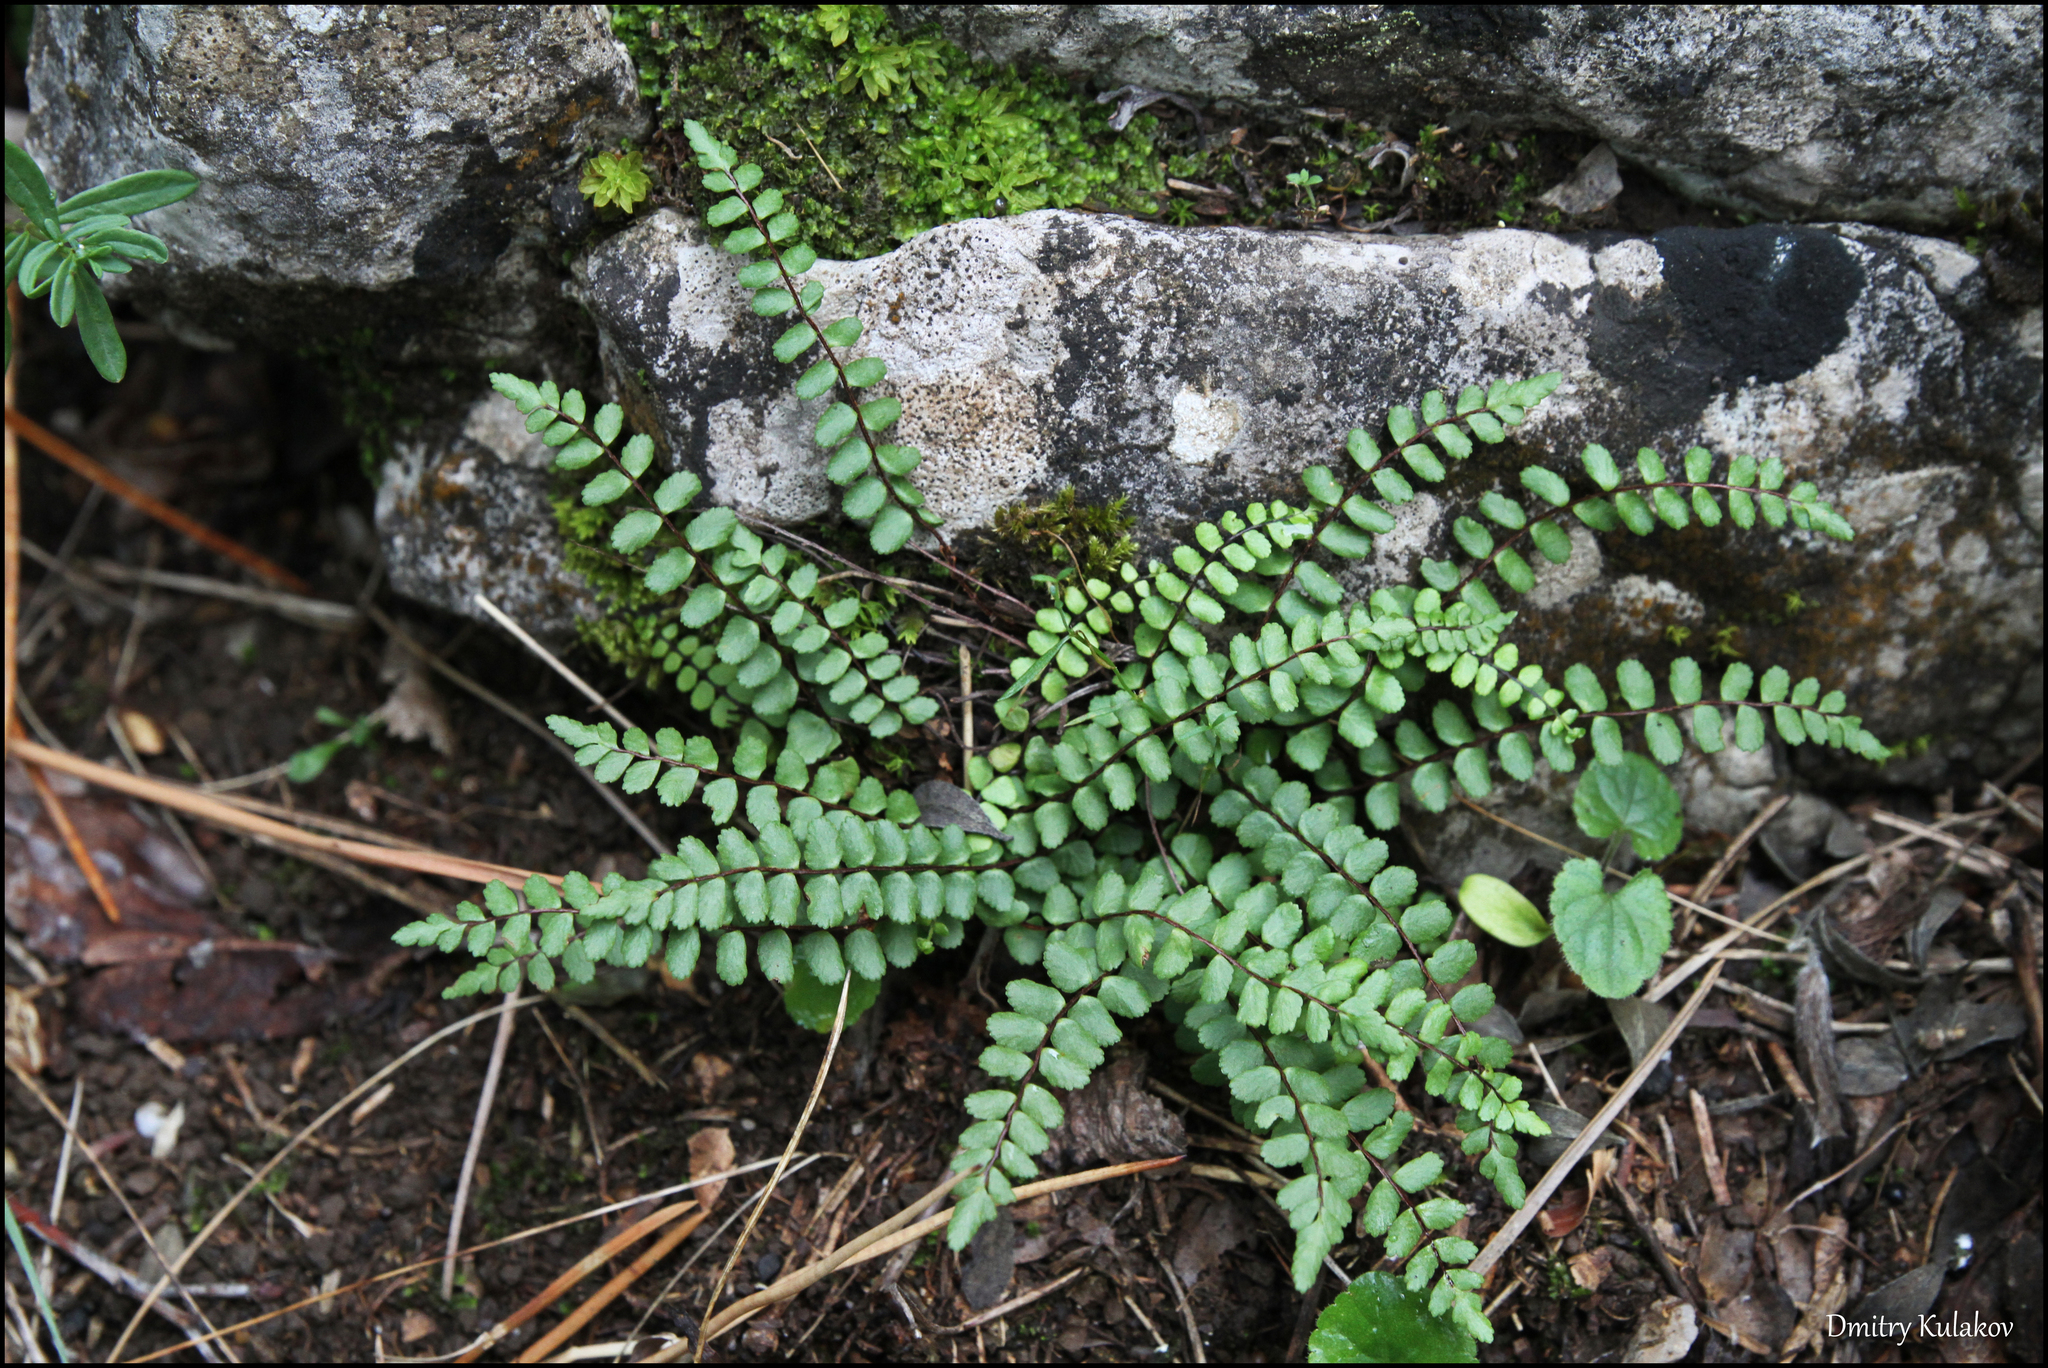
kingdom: Plantae
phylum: Tracheophyta
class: Polypodiopsida
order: Polypodiales
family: Aspleniaceae
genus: Asplenium
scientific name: Asplenium trichomanes
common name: Maidenhair spleenwort
